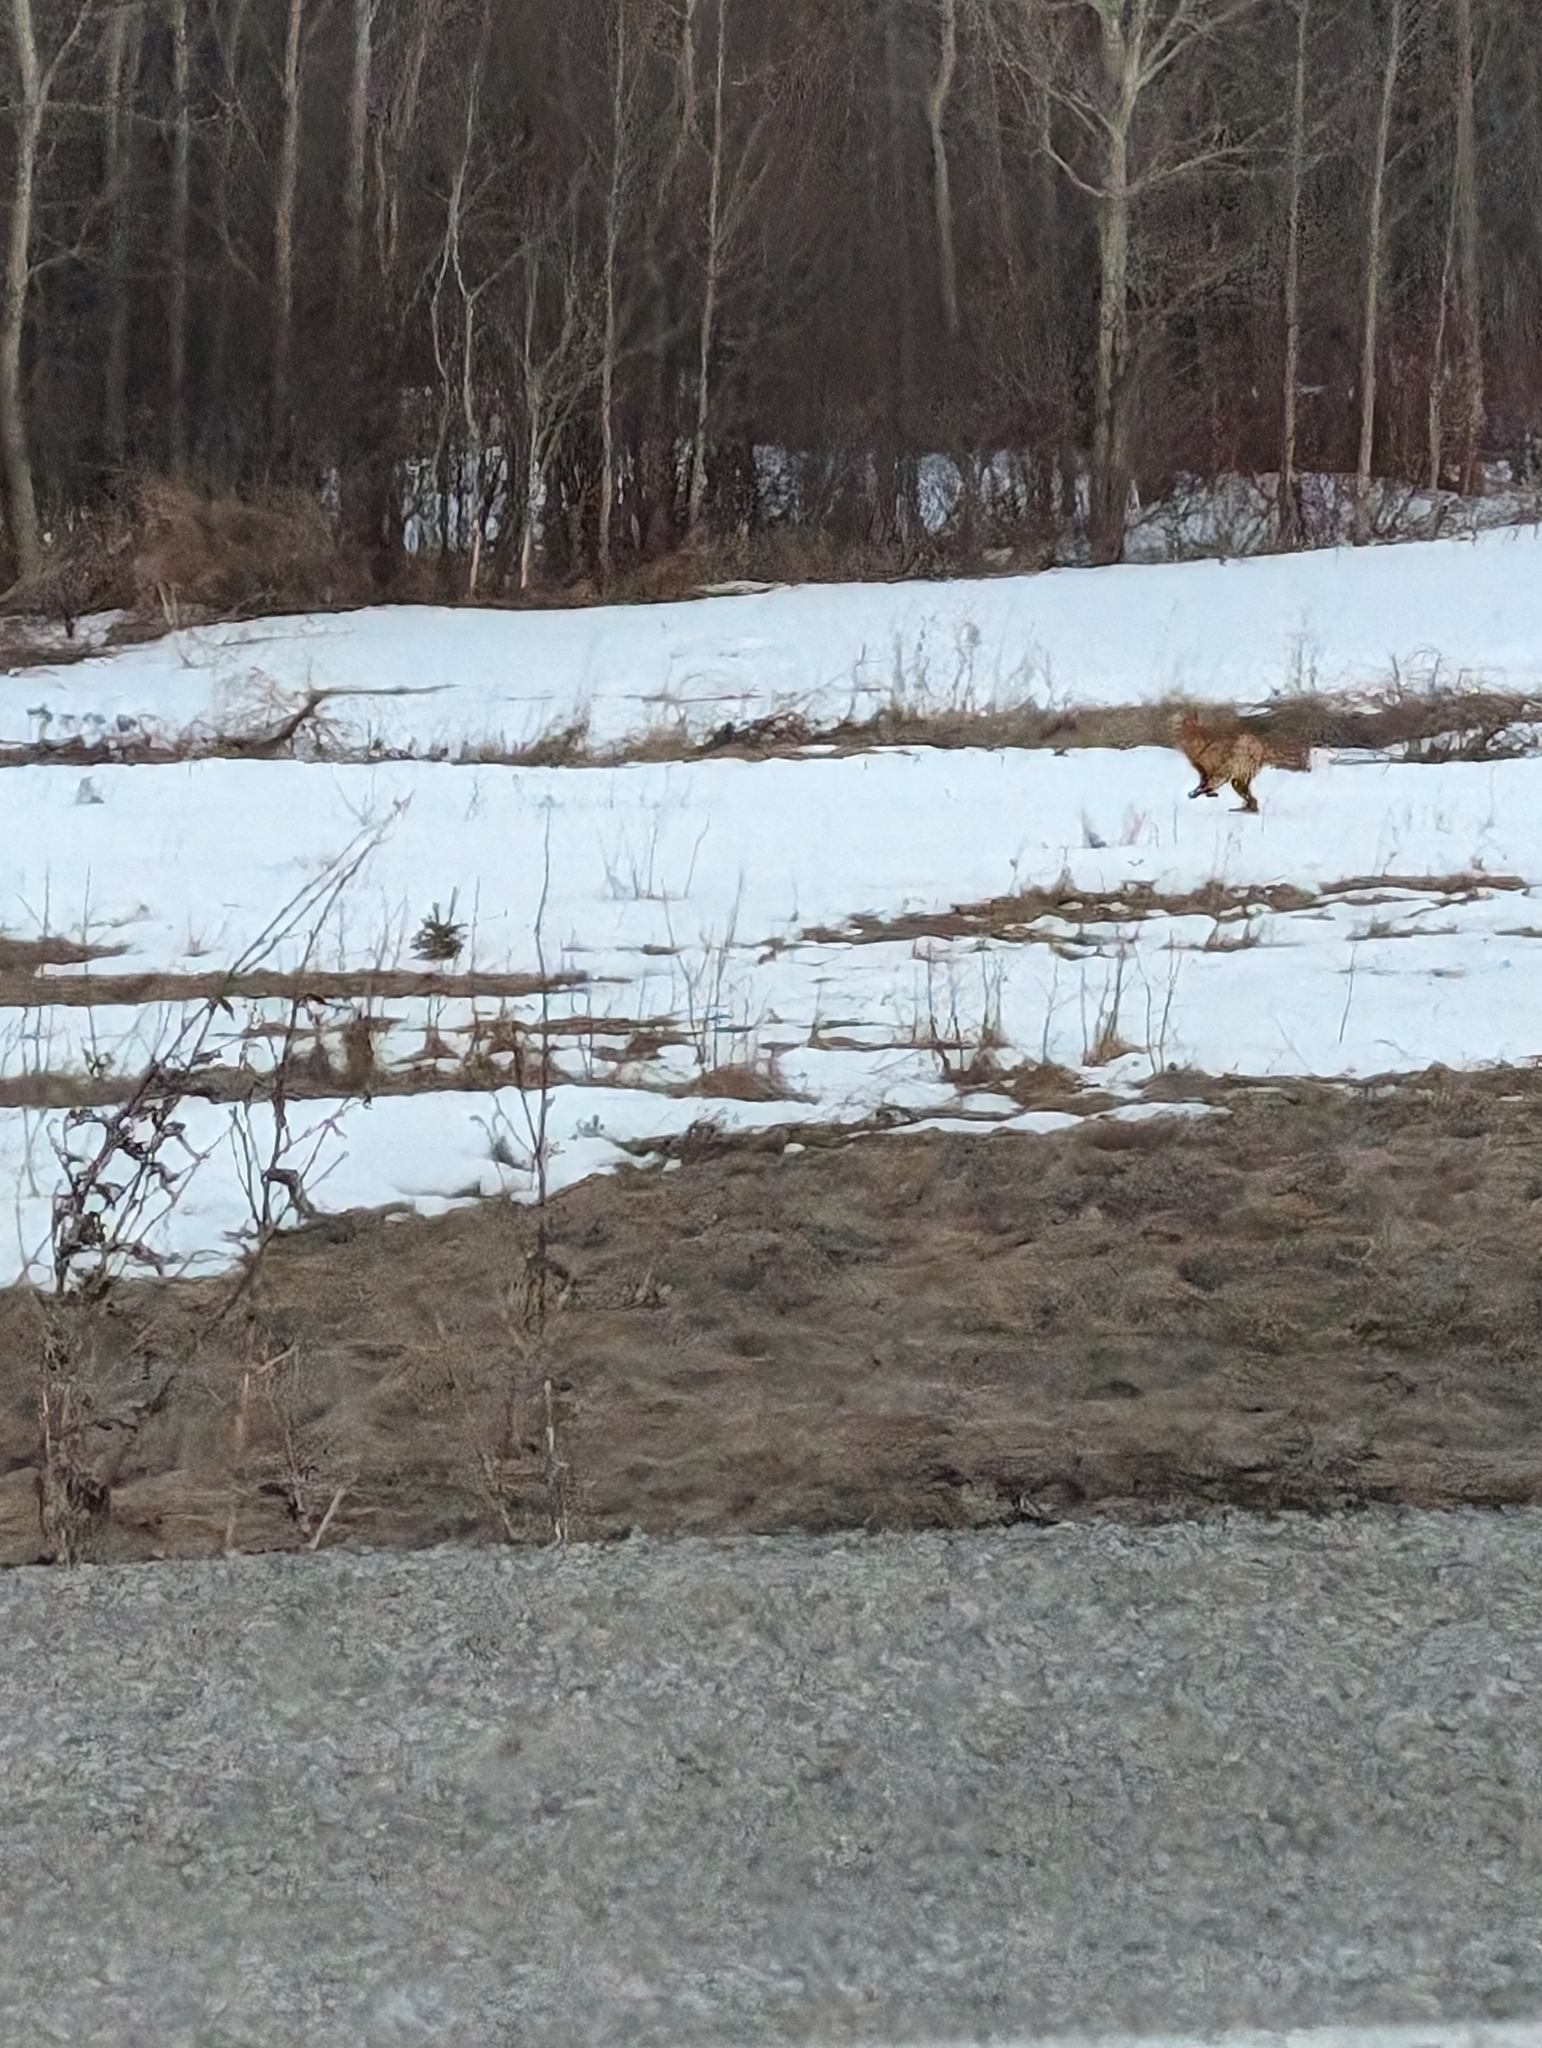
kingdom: Animalia
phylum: Chordata
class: Mammalia
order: Carnivora
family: Canidae
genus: Vulpes
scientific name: Vulpes vulpes
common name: Red fox
